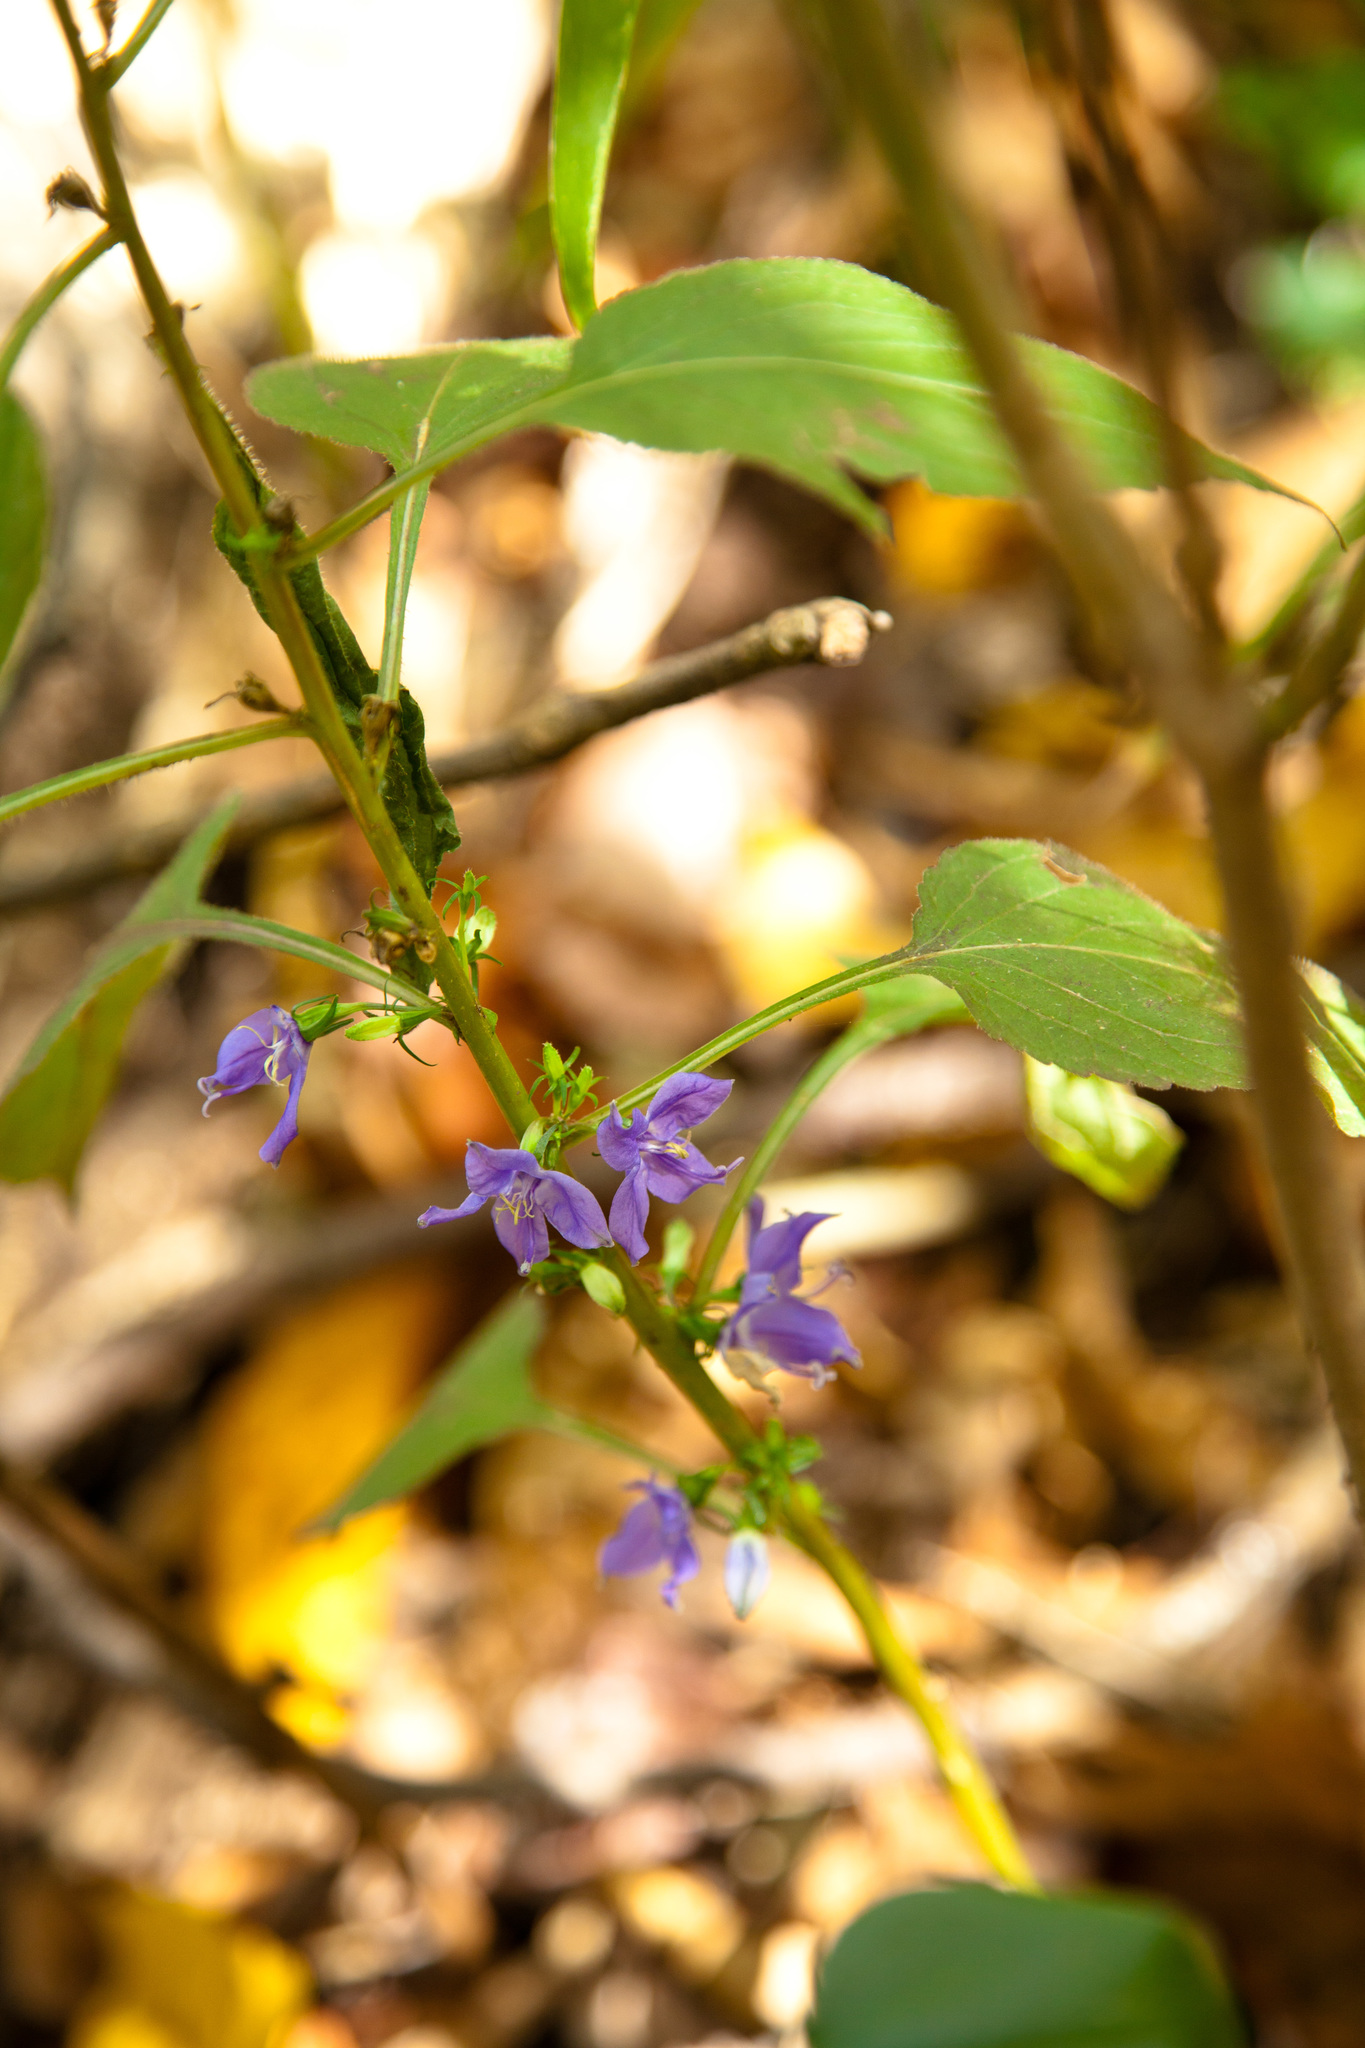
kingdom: Plantae
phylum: Tracheophyta
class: Magnoliopsida
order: Asterales
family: Campanulaceae
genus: Campanulastrum
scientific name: Campanulastrum americanum
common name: American bellflower
